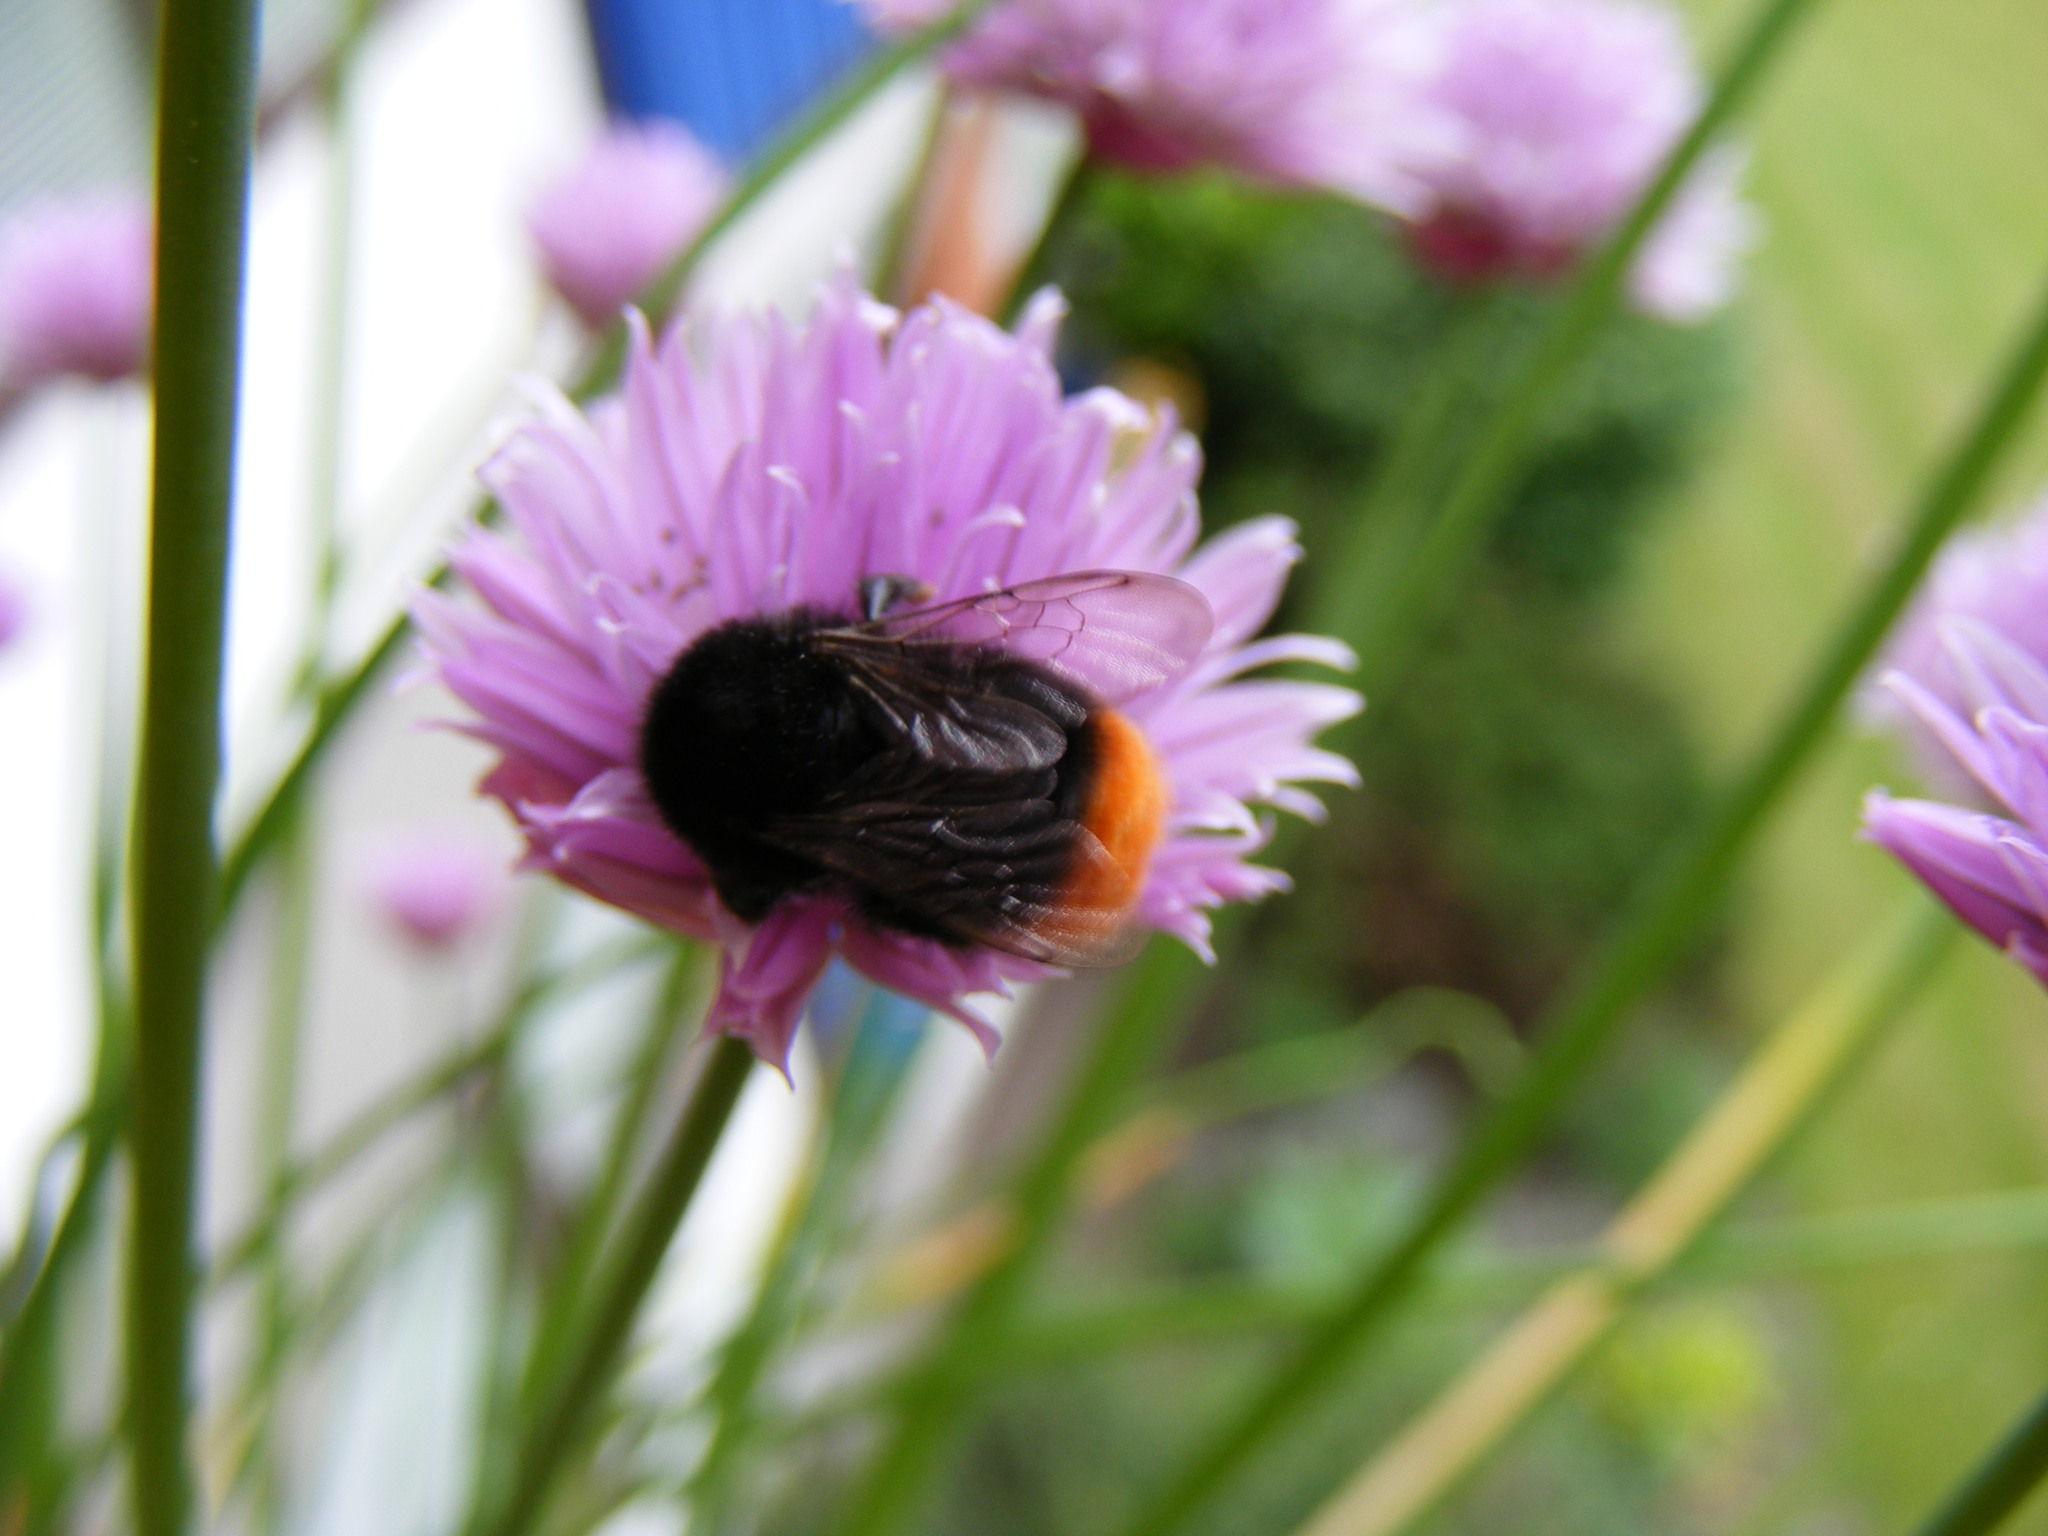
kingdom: Animalia
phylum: Arthropoda
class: Insecta
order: Hymenoptera
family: Apidae
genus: Bombus
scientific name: Bombus lapidarius
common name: Large red-tailed humble-bee
